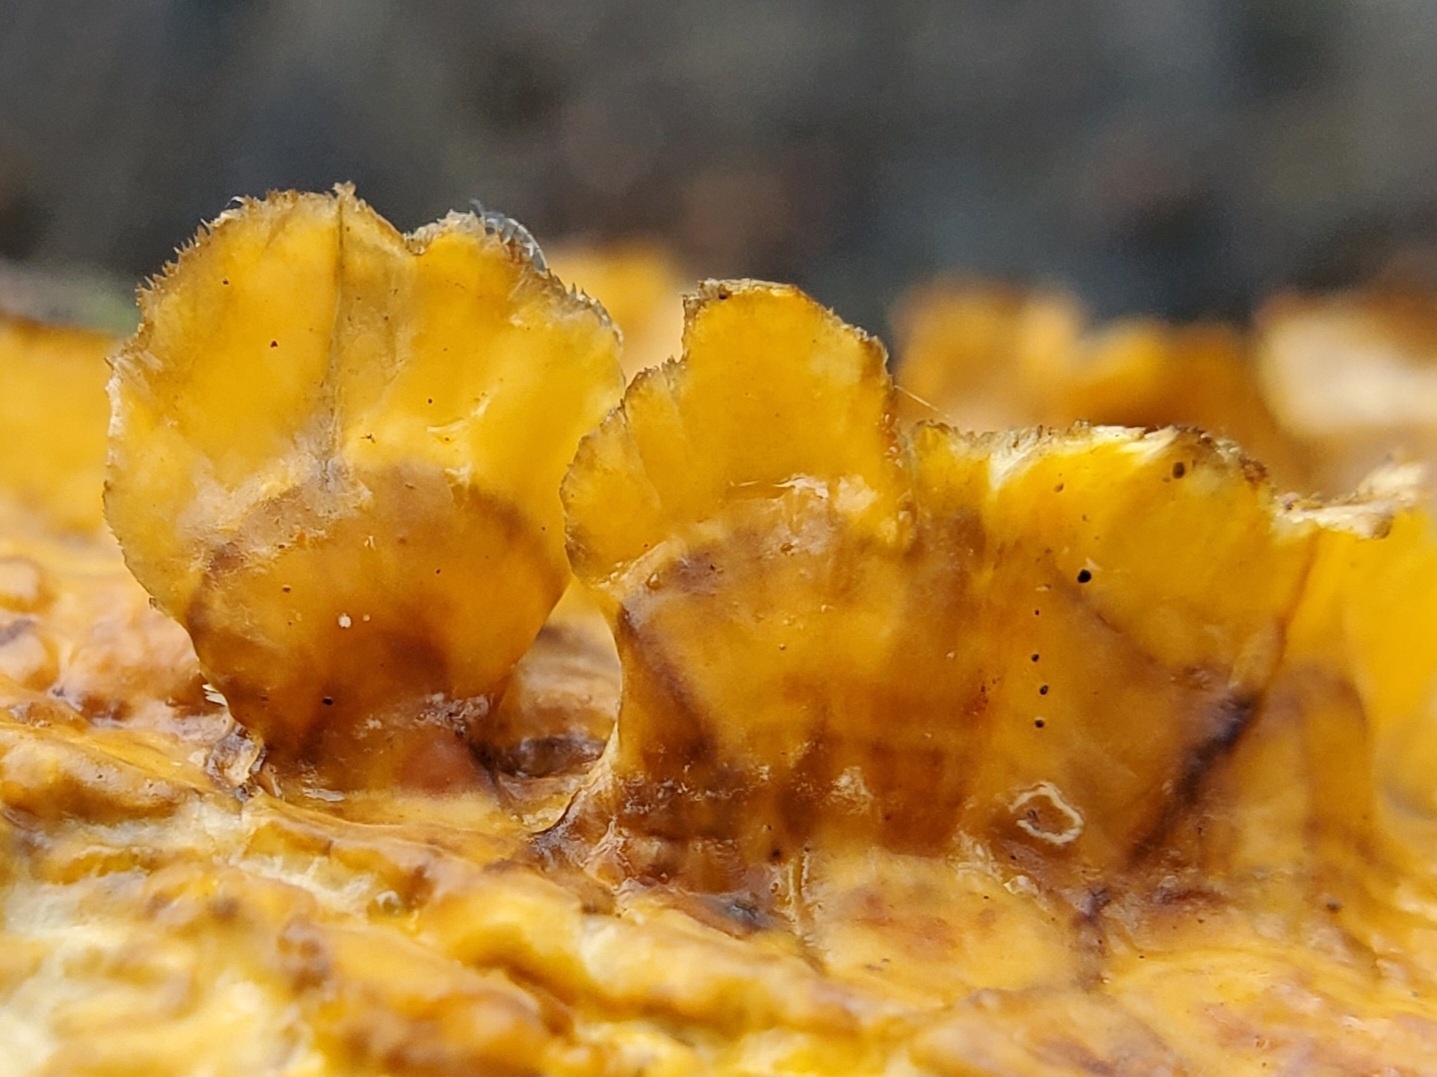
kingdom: Fungi
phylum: Basidiomycota
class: Agaricomycetes
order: Russulales
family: Stereaceae
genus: Stereum
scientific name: Stereum complicatum
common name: Crowded parchment
